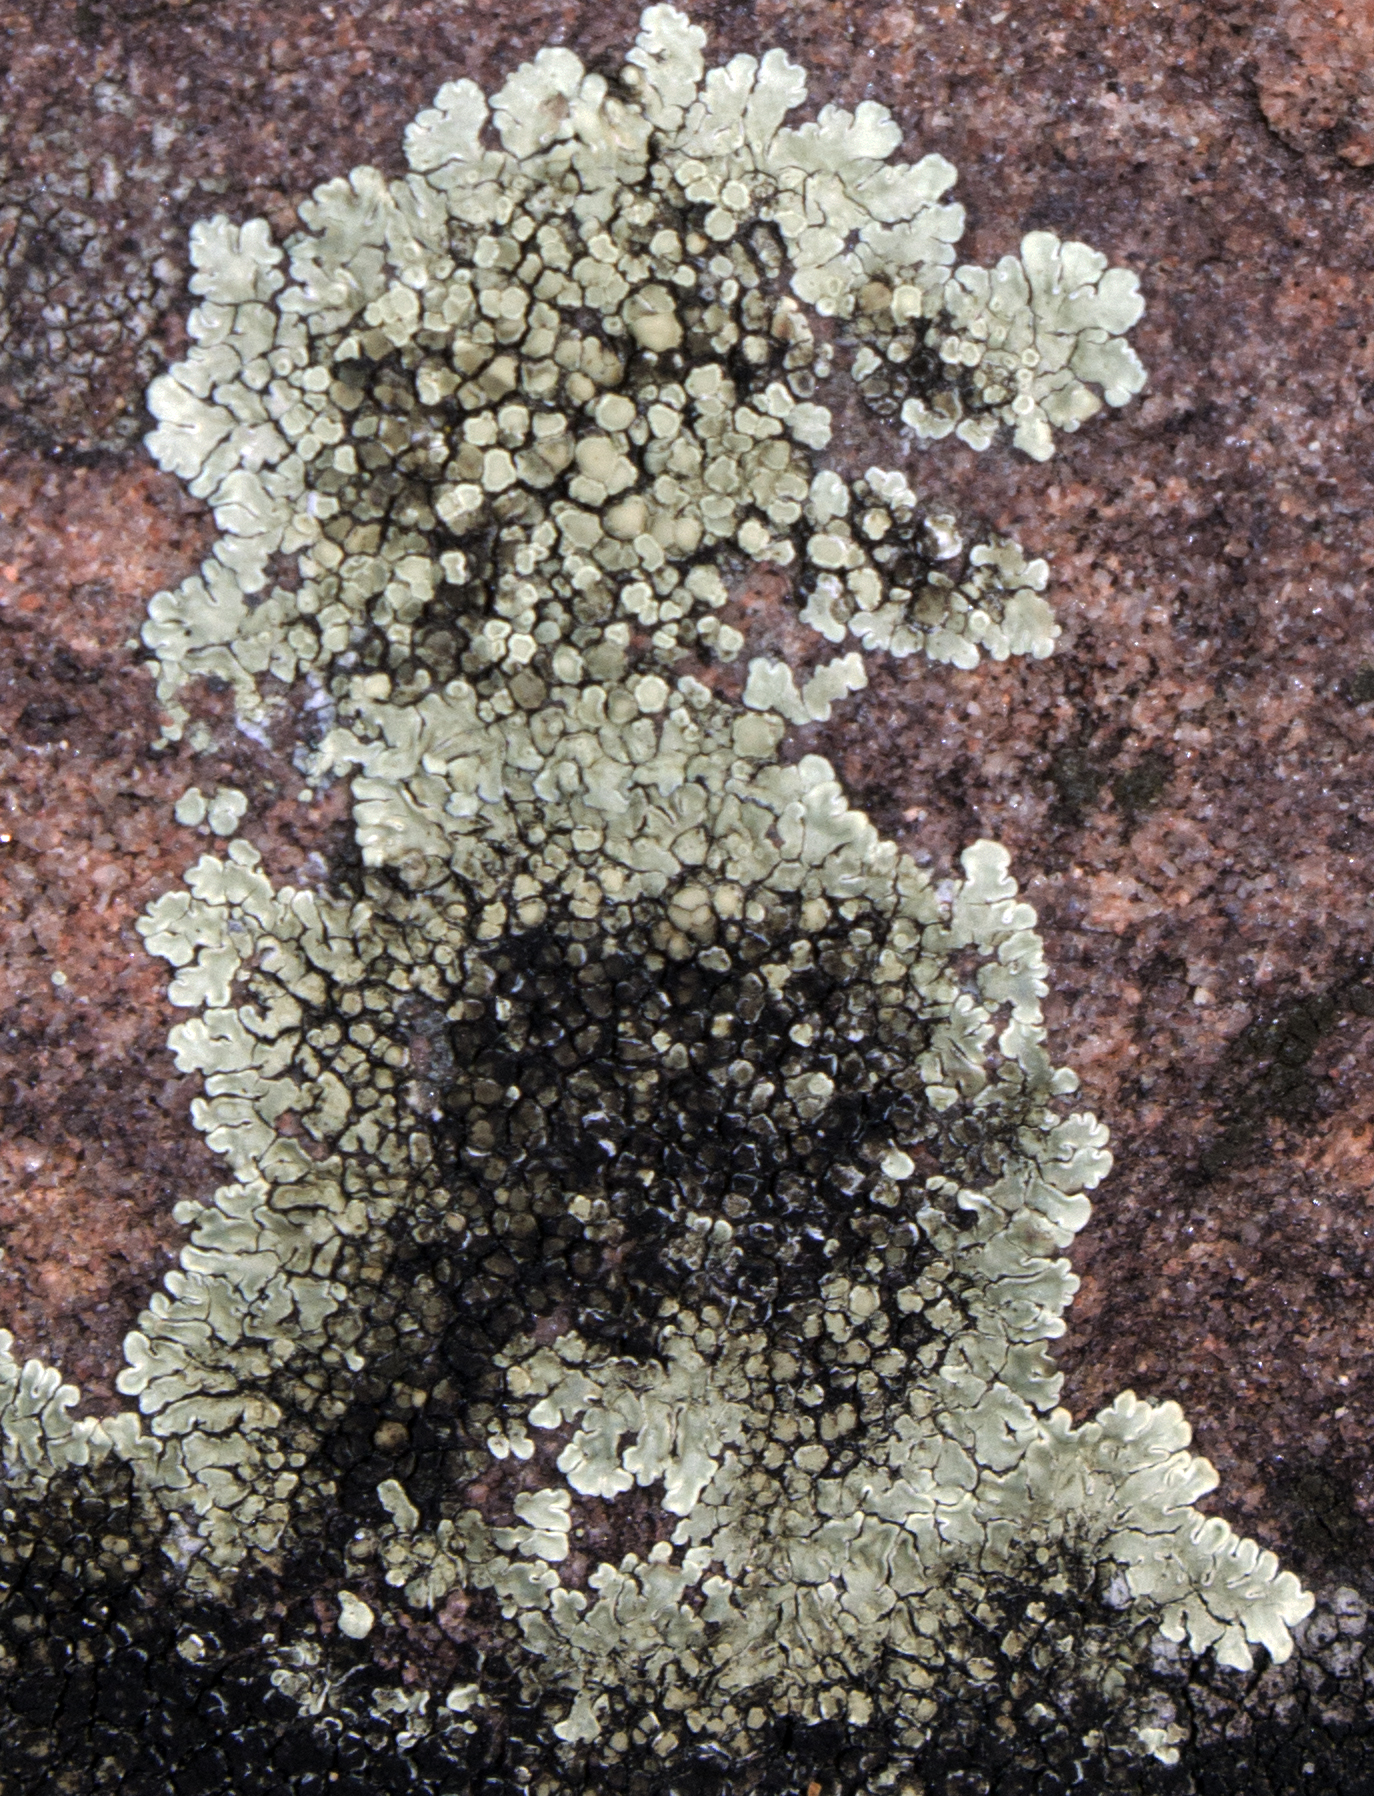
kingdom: Fungi
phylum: Ascomycota
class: Lecanoromycetes
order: Lecanorales
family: Lecanoraceae
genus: Protoparmeliopsis
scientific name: Protoparmeliopsis muralis
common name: Stonewall rim lichen
